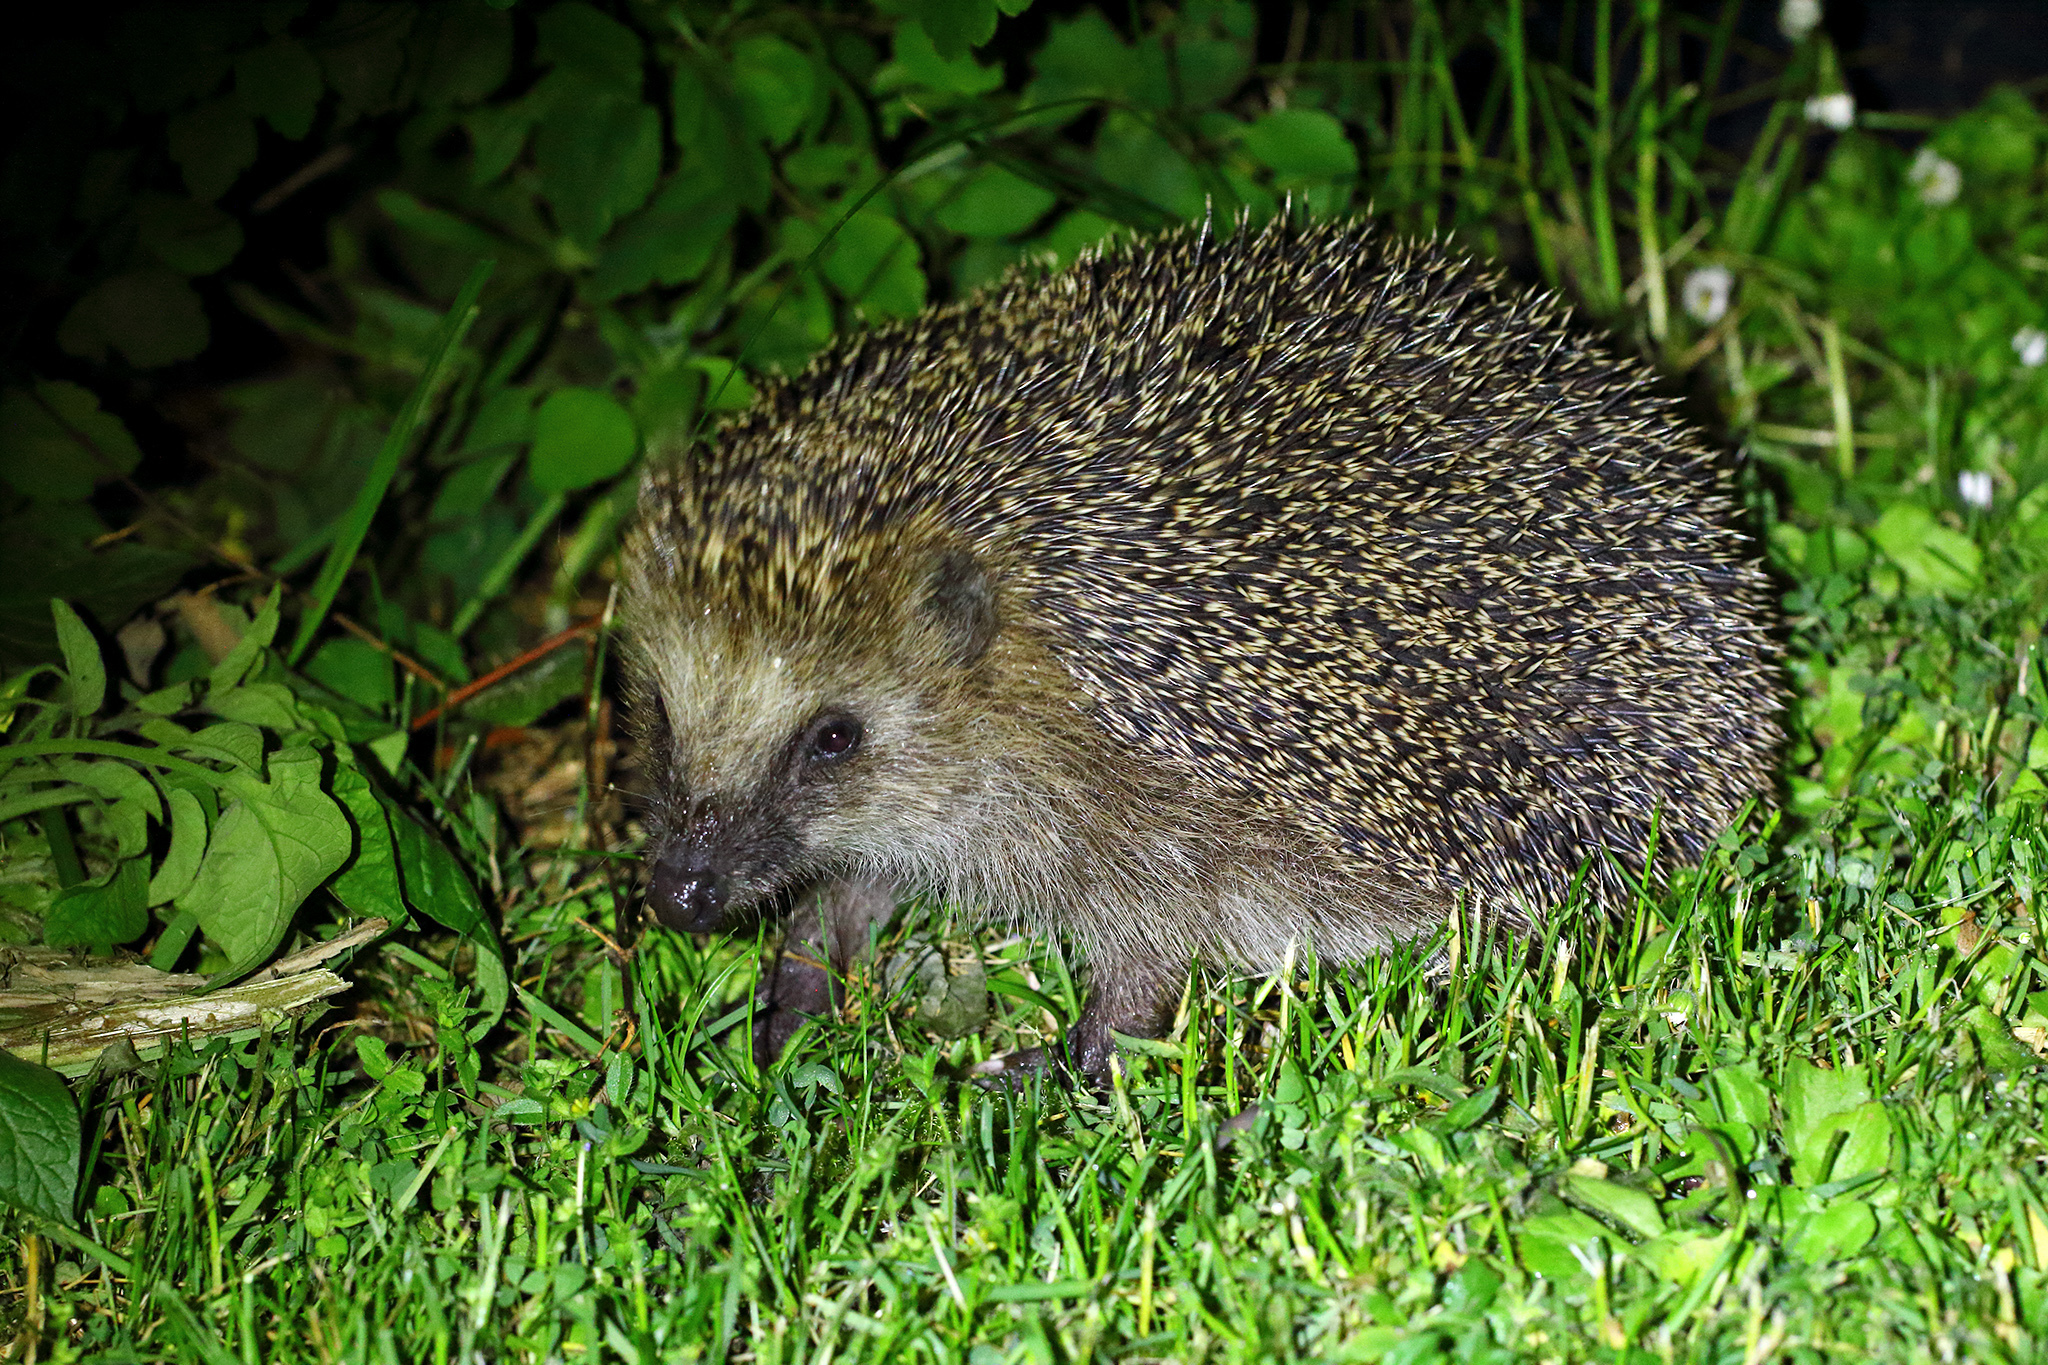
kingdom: Animalia
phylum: Chordata
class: Mammalia
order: Erinaceomorpha
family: Erinaceidae
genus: Erinaceus
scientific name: Erinaceus europaeus
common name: West european hedgehog
